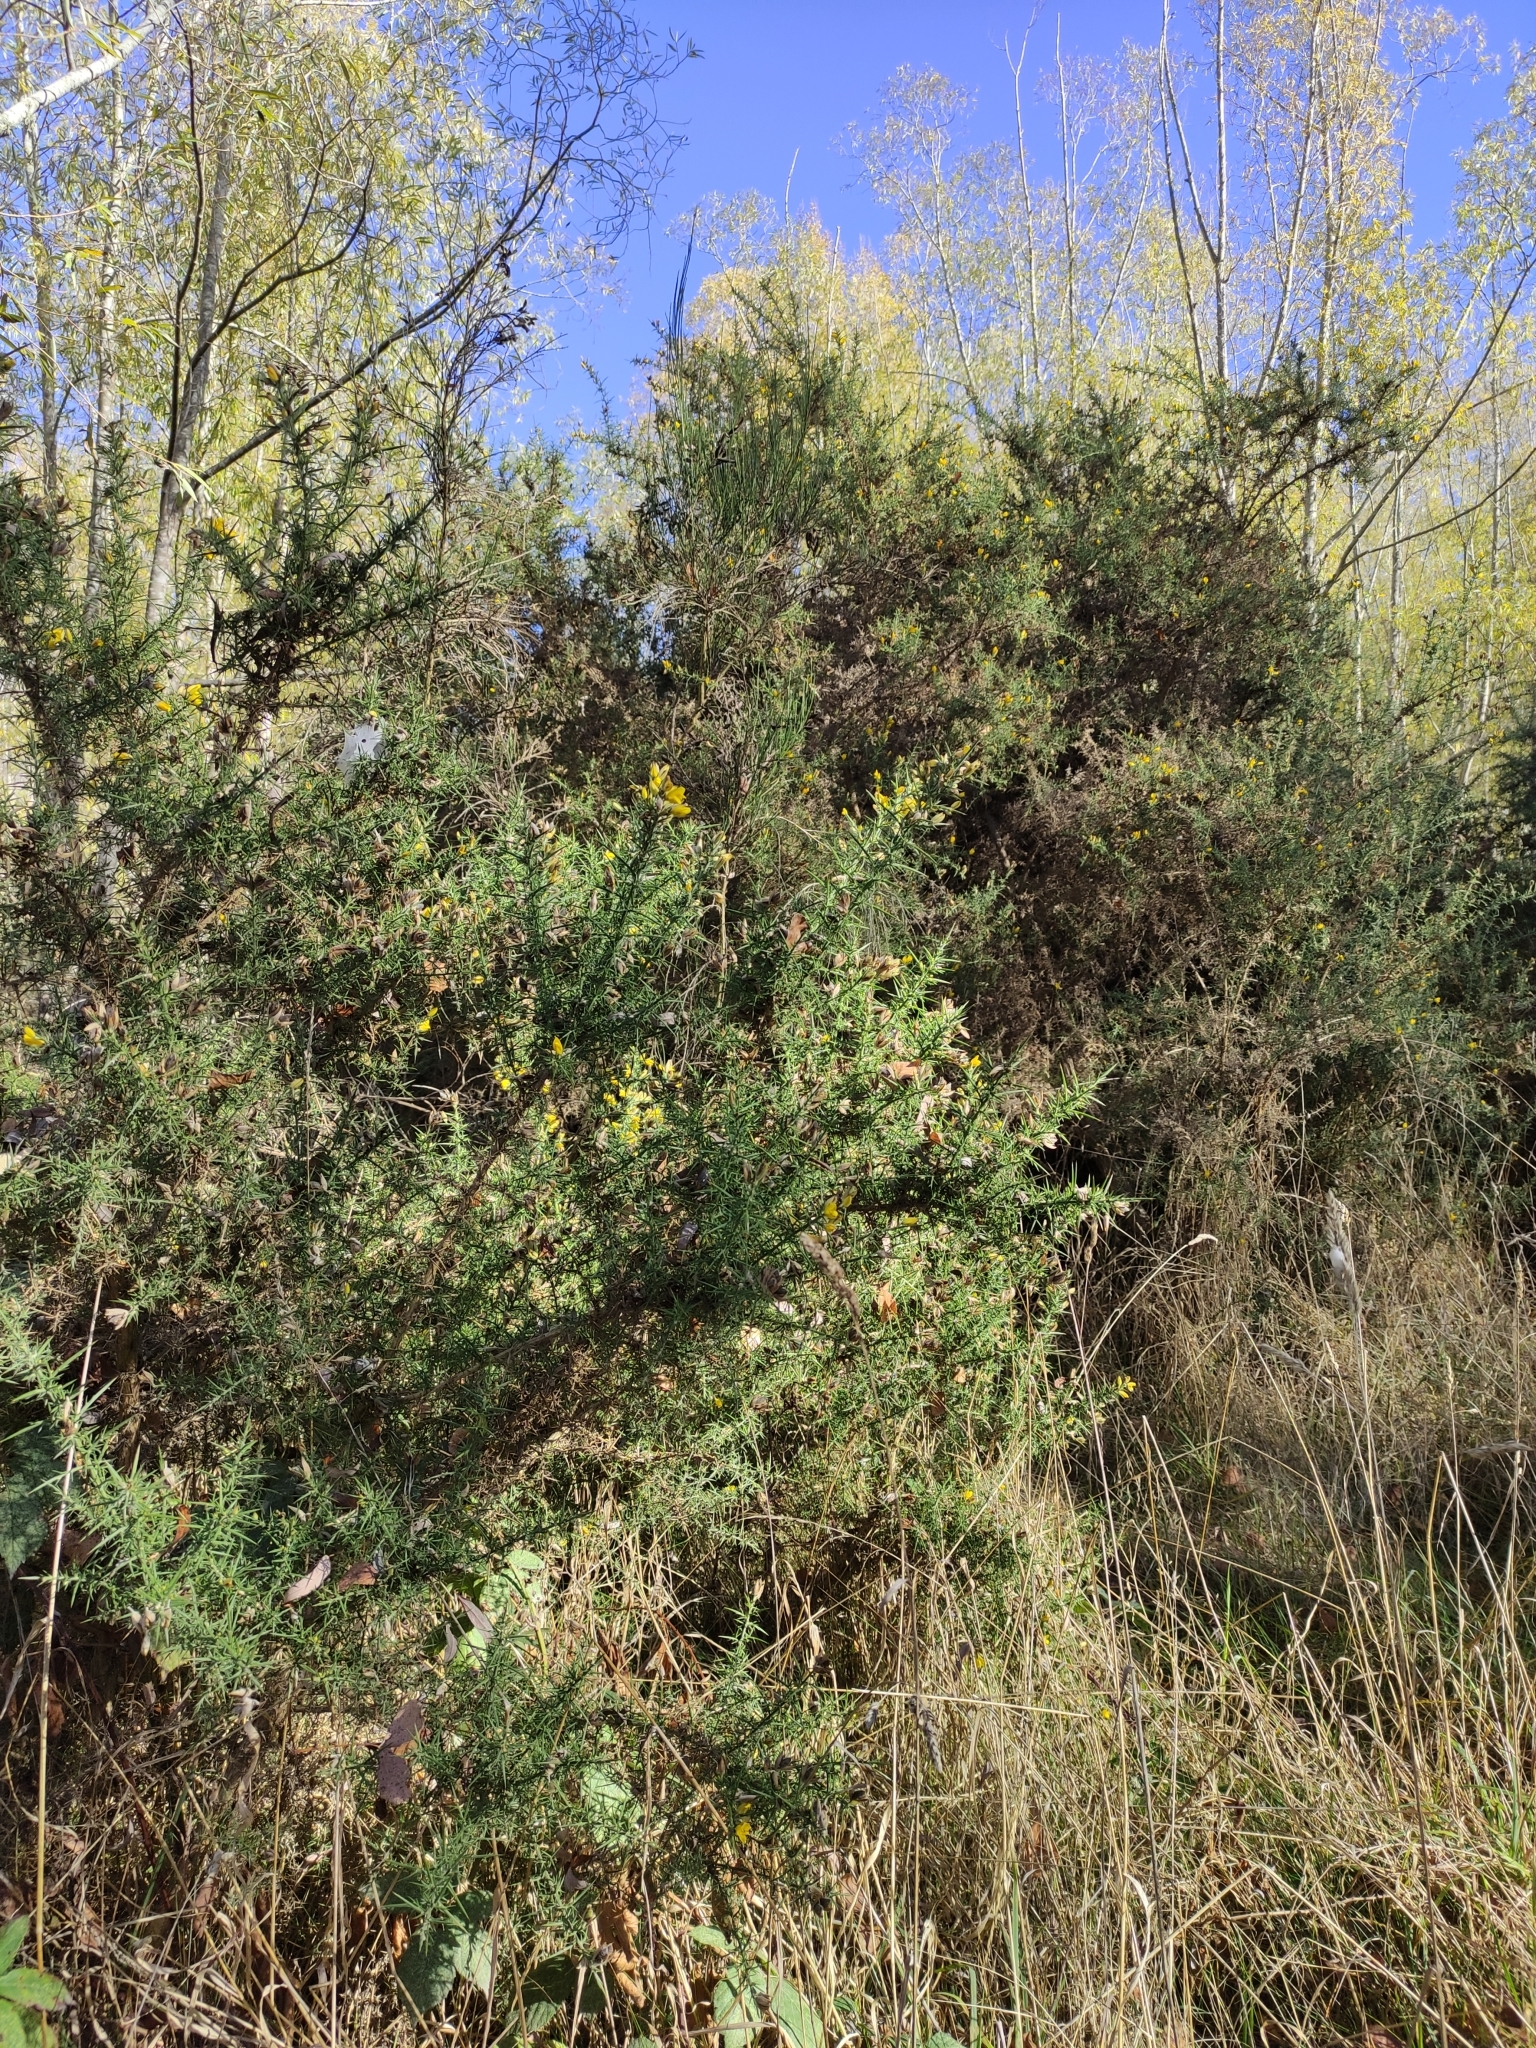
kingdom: Plantae
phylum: Tracheophyta
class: Magnoliopsida
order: Fabales
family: Fabaceae
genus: Ulex
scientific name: Ulex europaeus
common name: Common gorse
